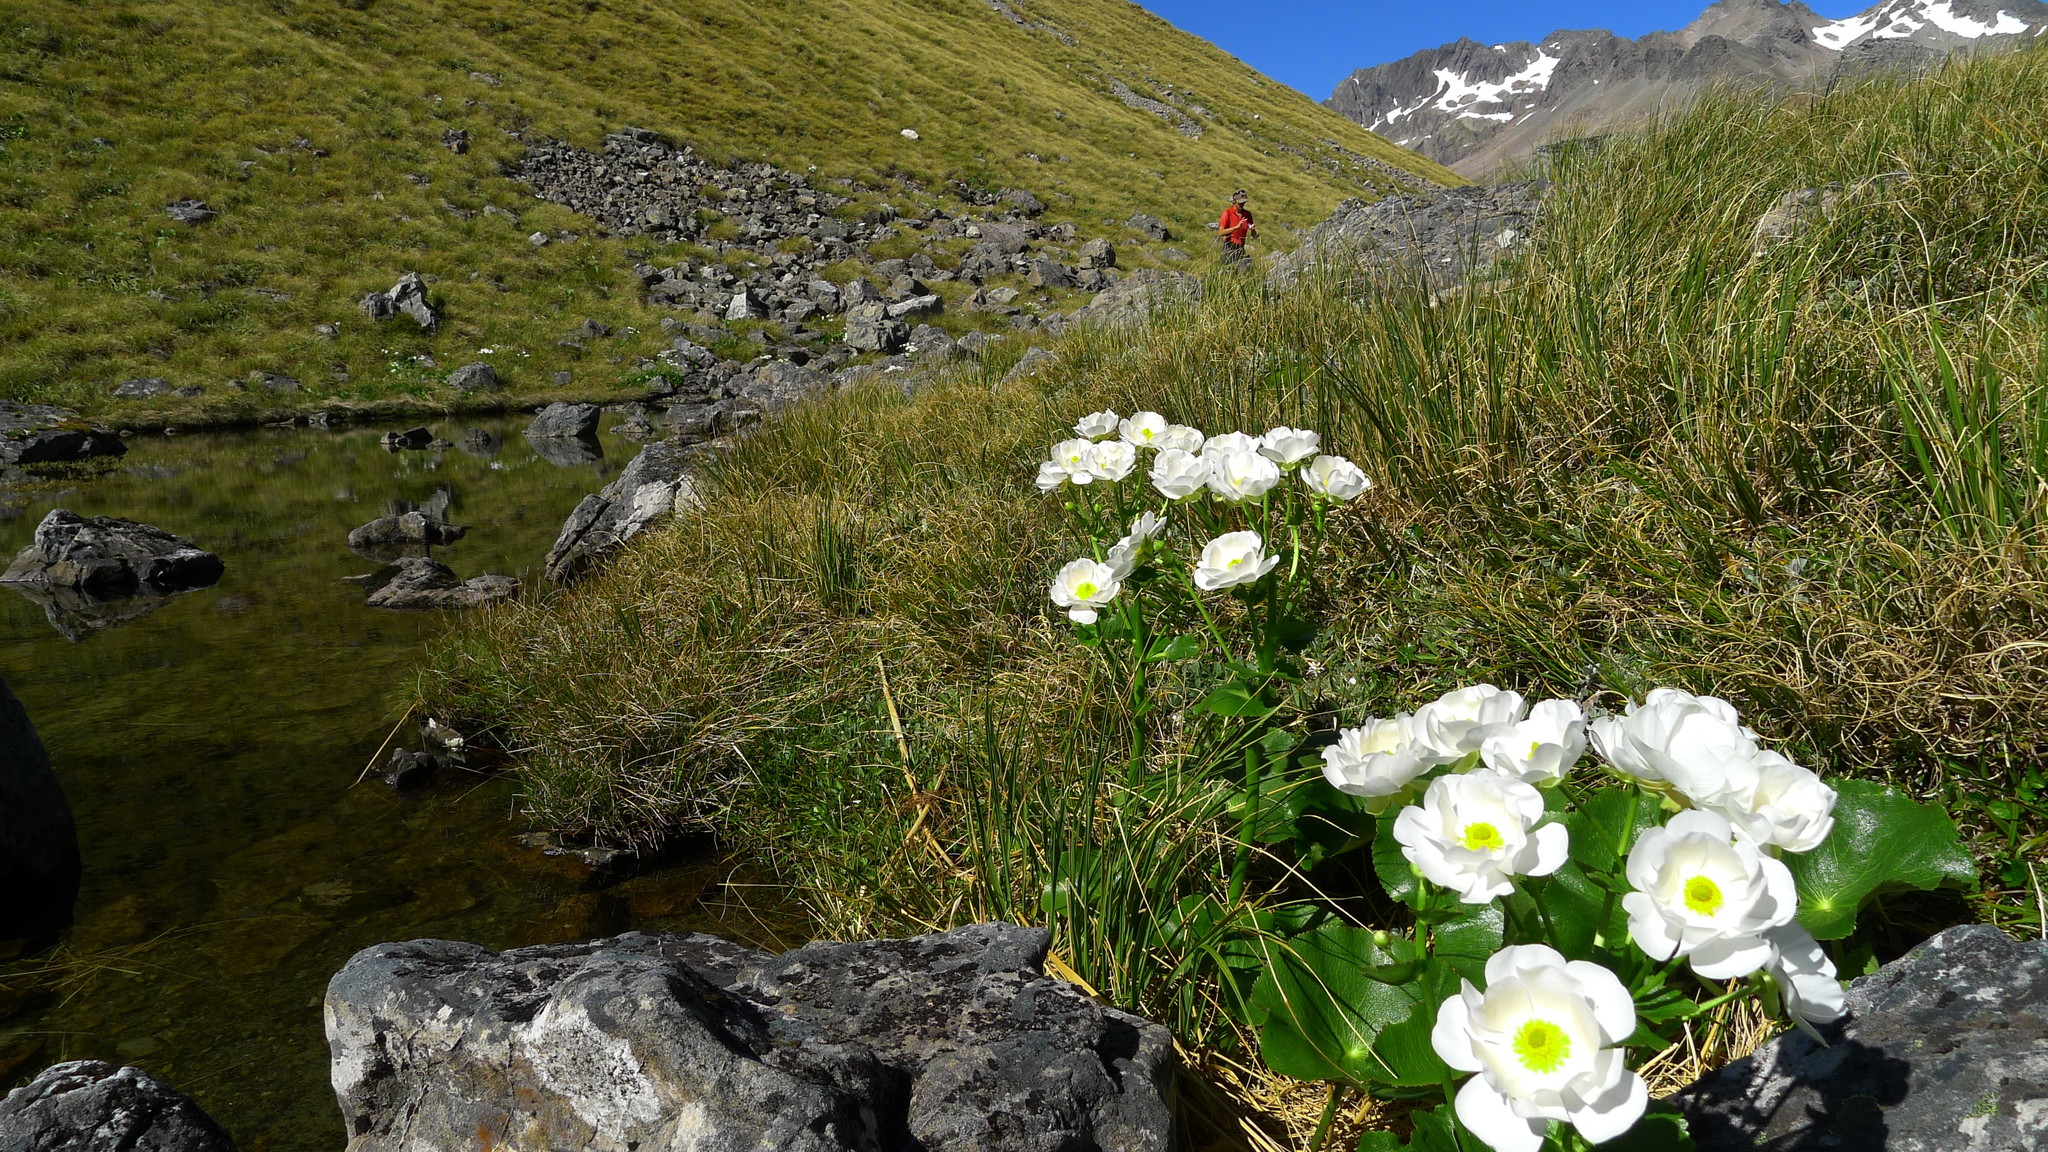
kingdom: Plantae
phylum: Tracheophyta
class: Magnoliopsida
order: Ranunculales
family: Ranunculaceae
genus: Ranunculus
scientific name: Ranunculus lyallii
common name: Mountain-lily
